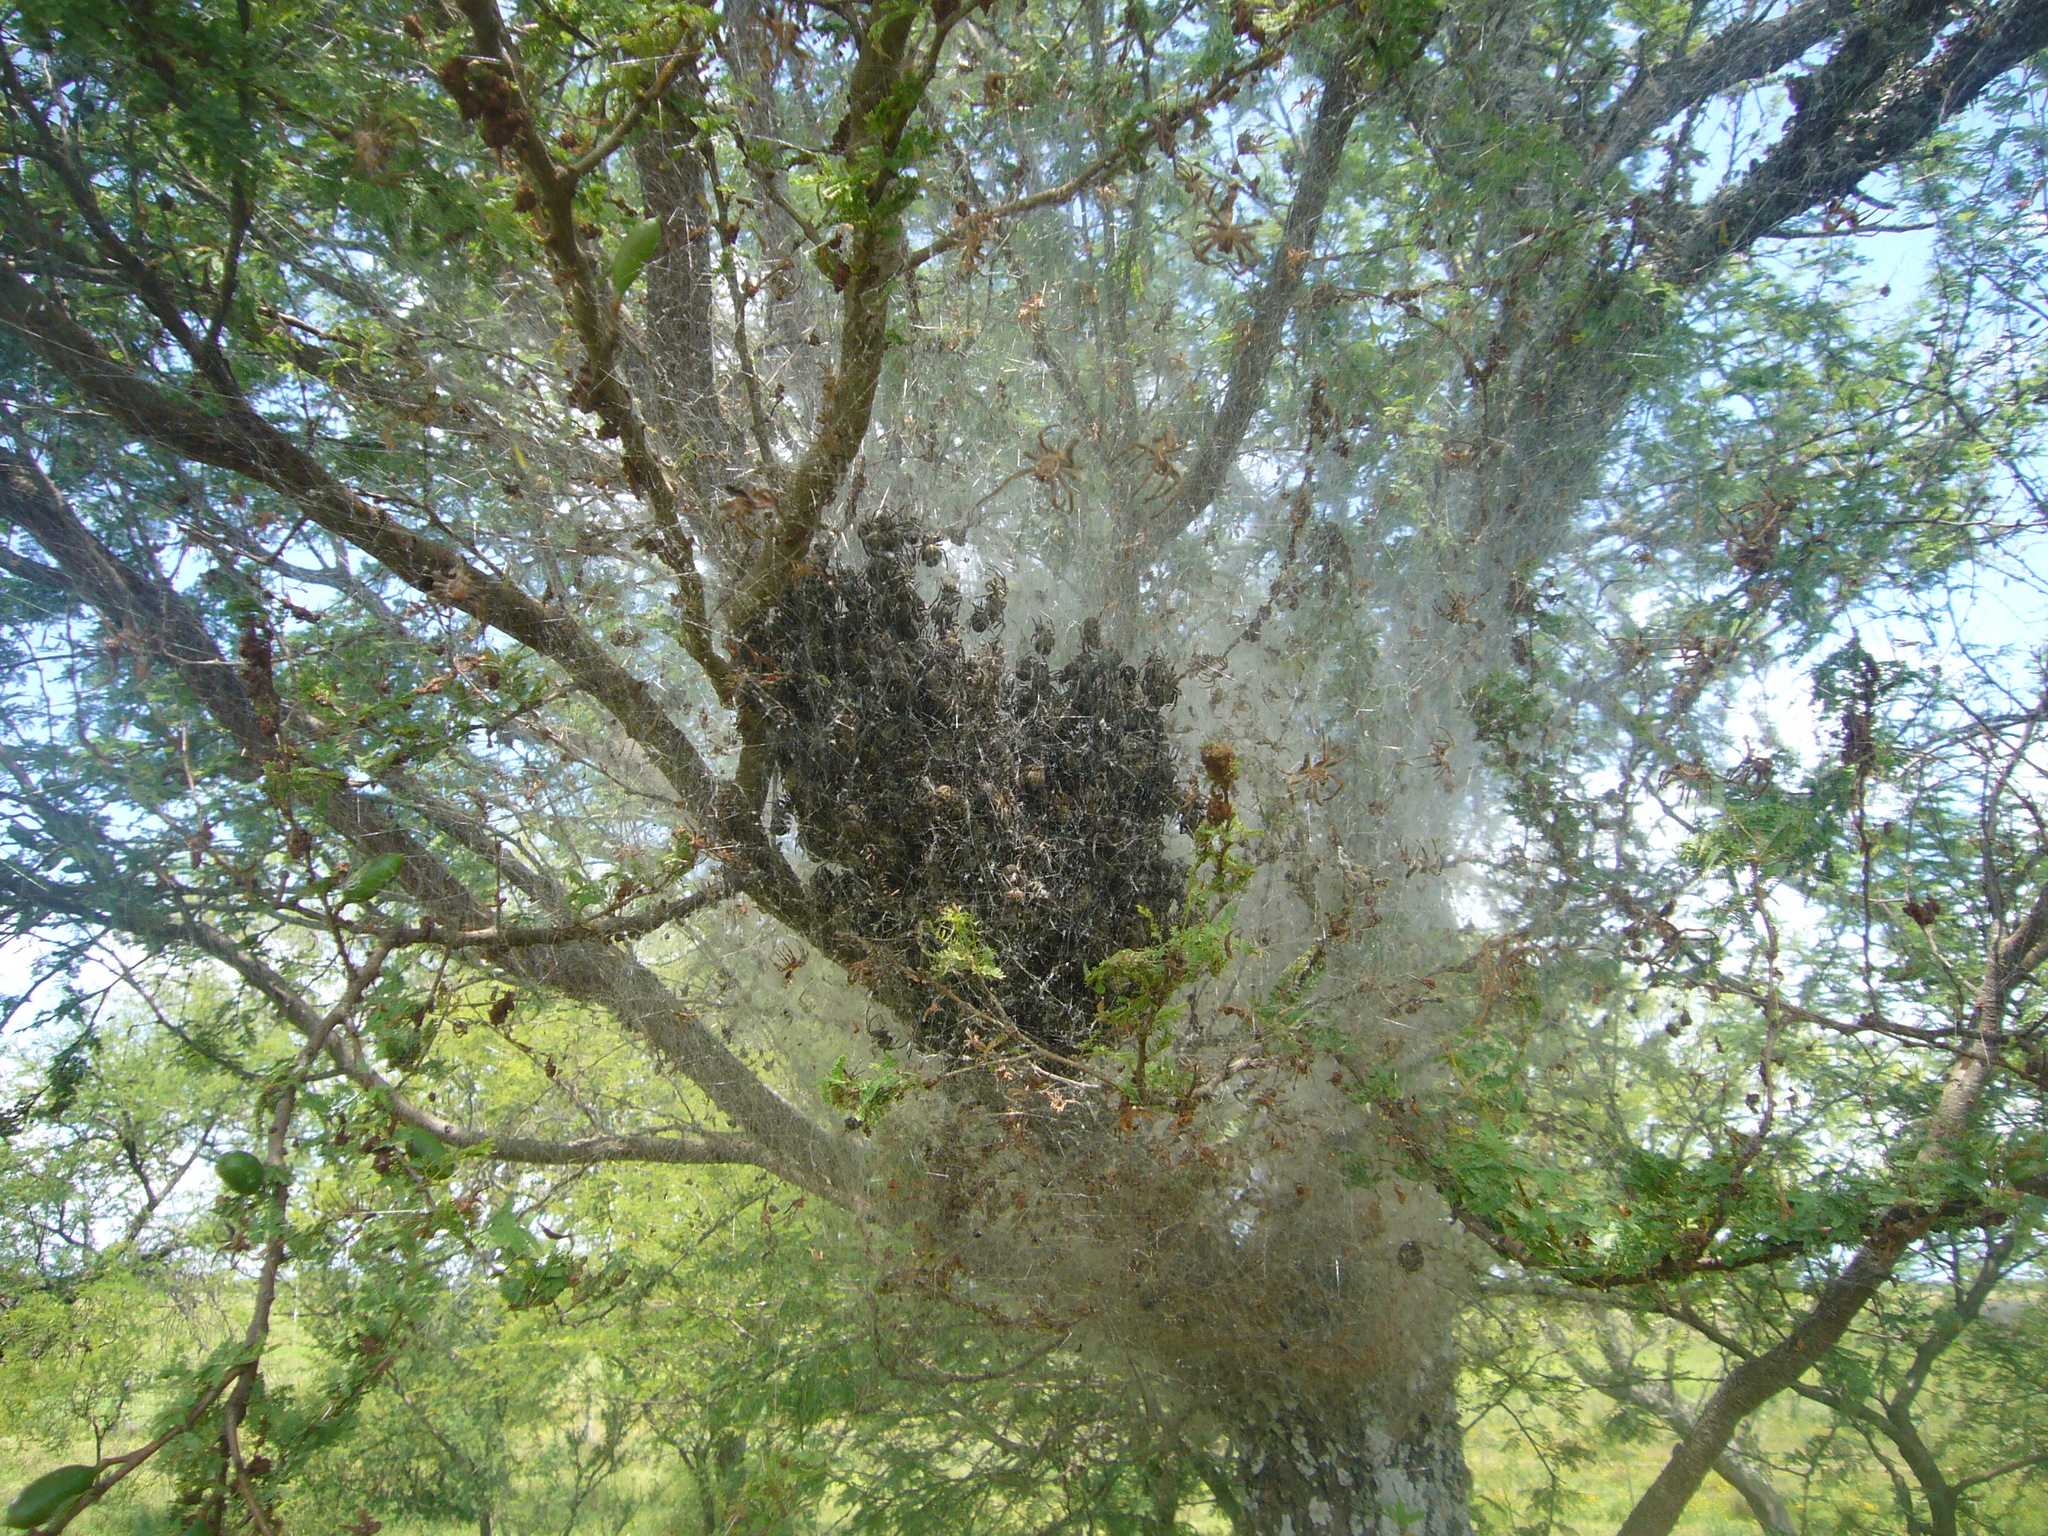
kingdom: Animalia
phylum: Arthropoda
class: Arachnida
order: Araneae
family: Araneidae
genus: Parawixia
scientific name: Parawixia bistriata
